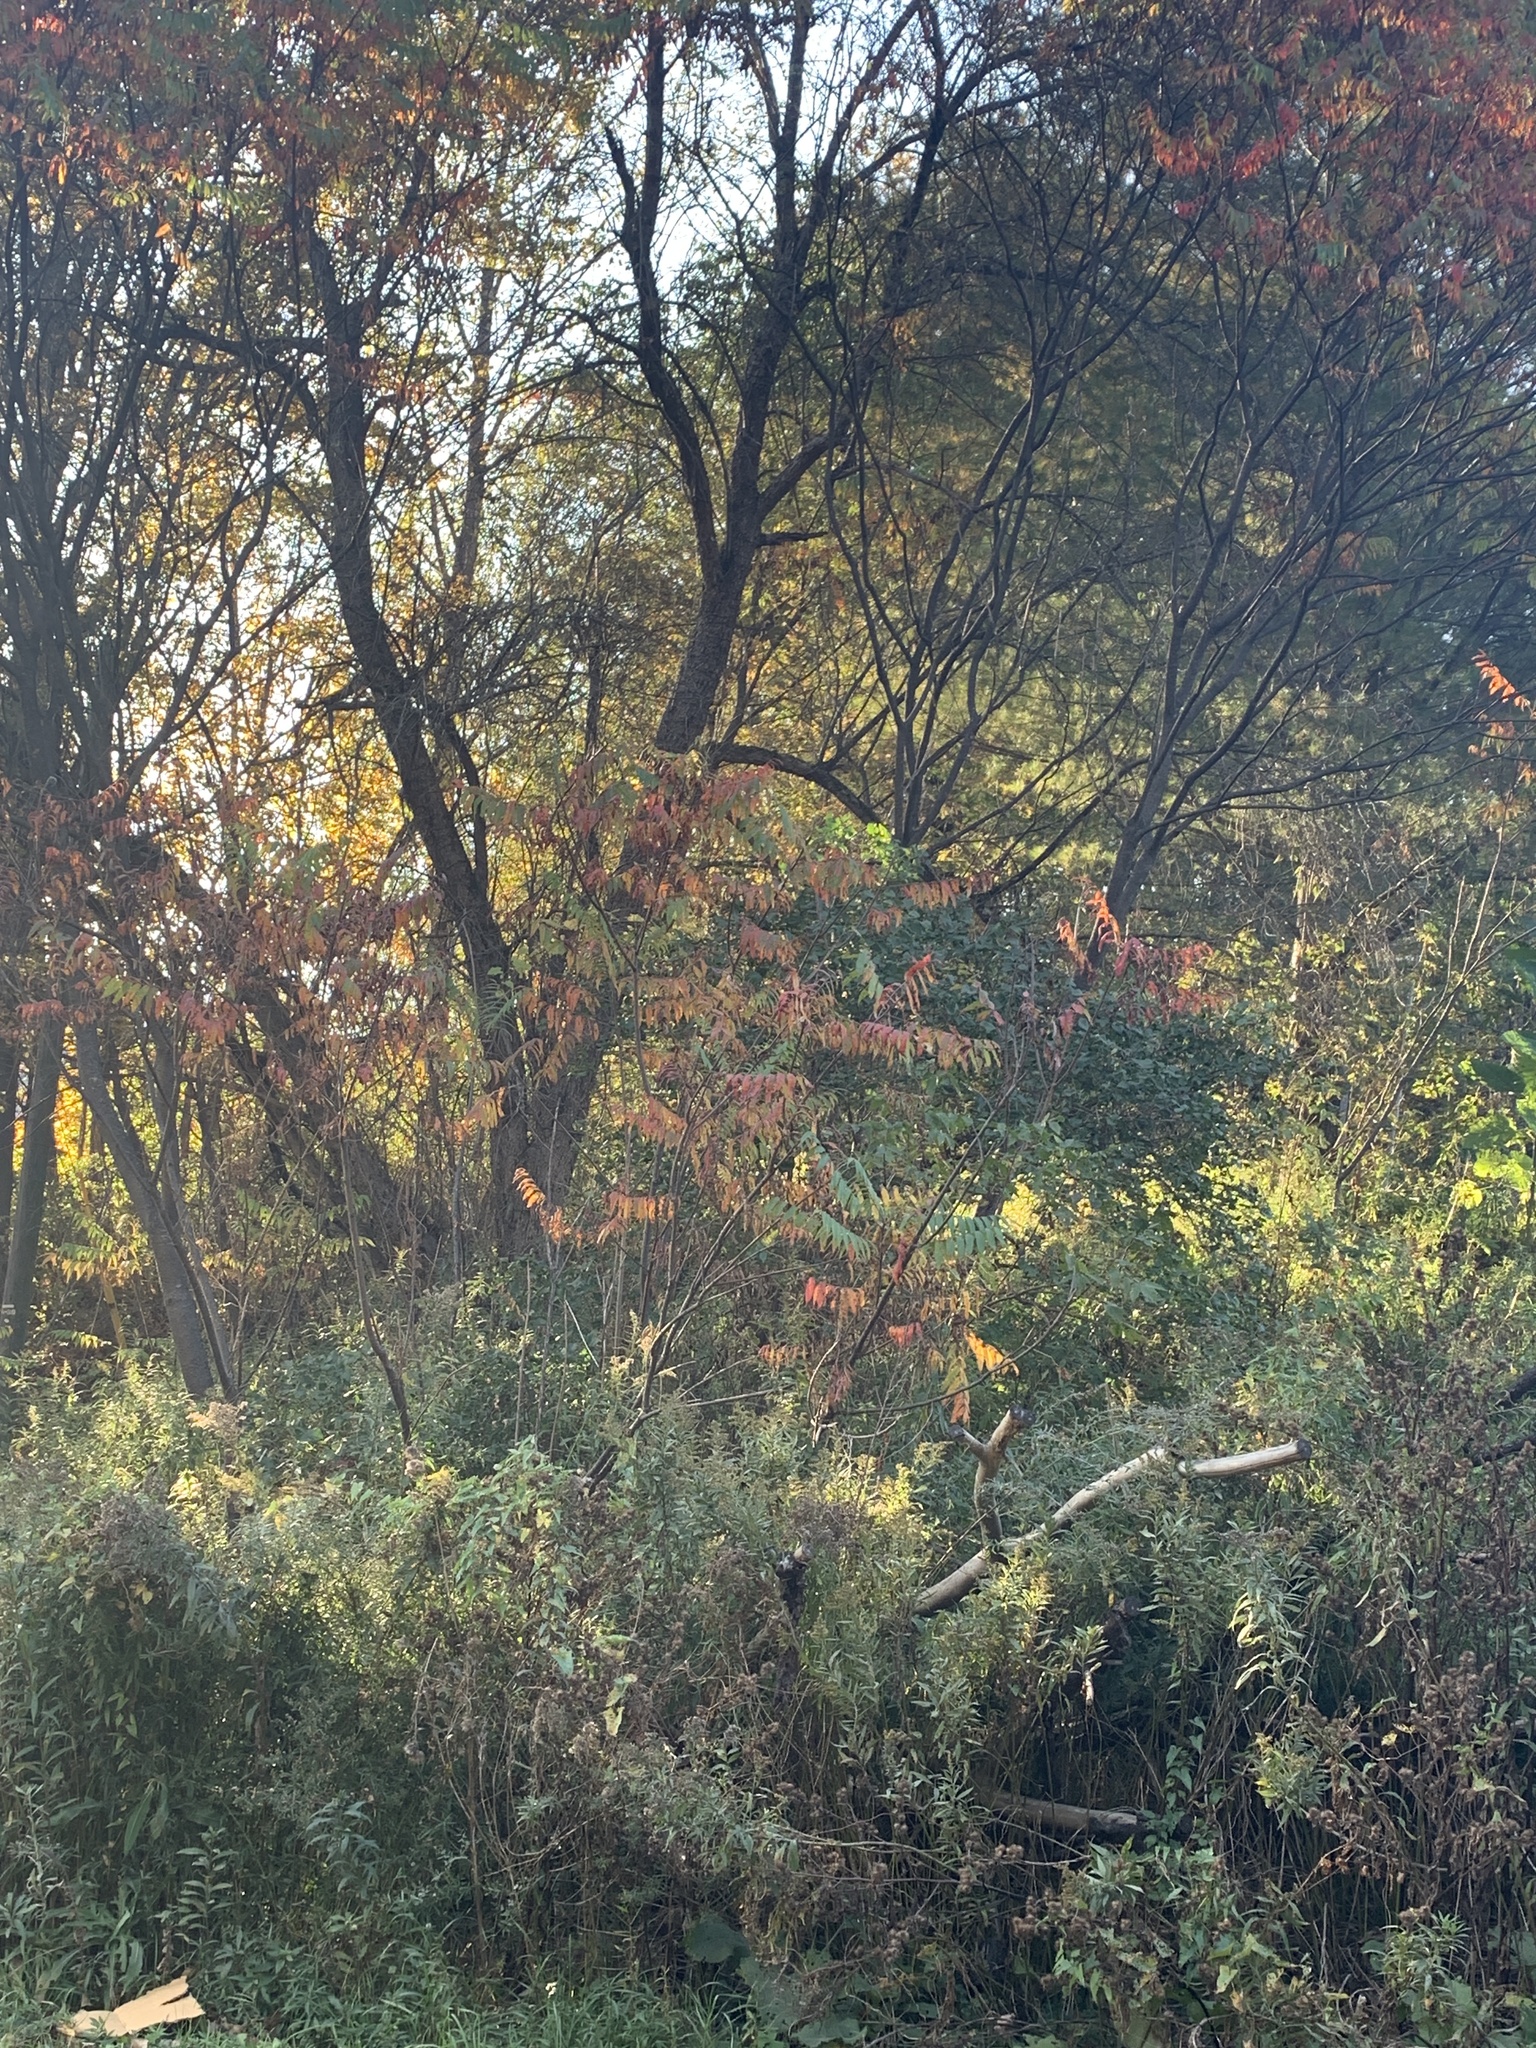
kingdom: Plantae
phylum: Tracheophyta
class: Magnoliopsida
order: Sapindales
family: Anacardiaceae
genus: Rhus
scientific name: Rhus typhina
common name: Staghorn sumac
